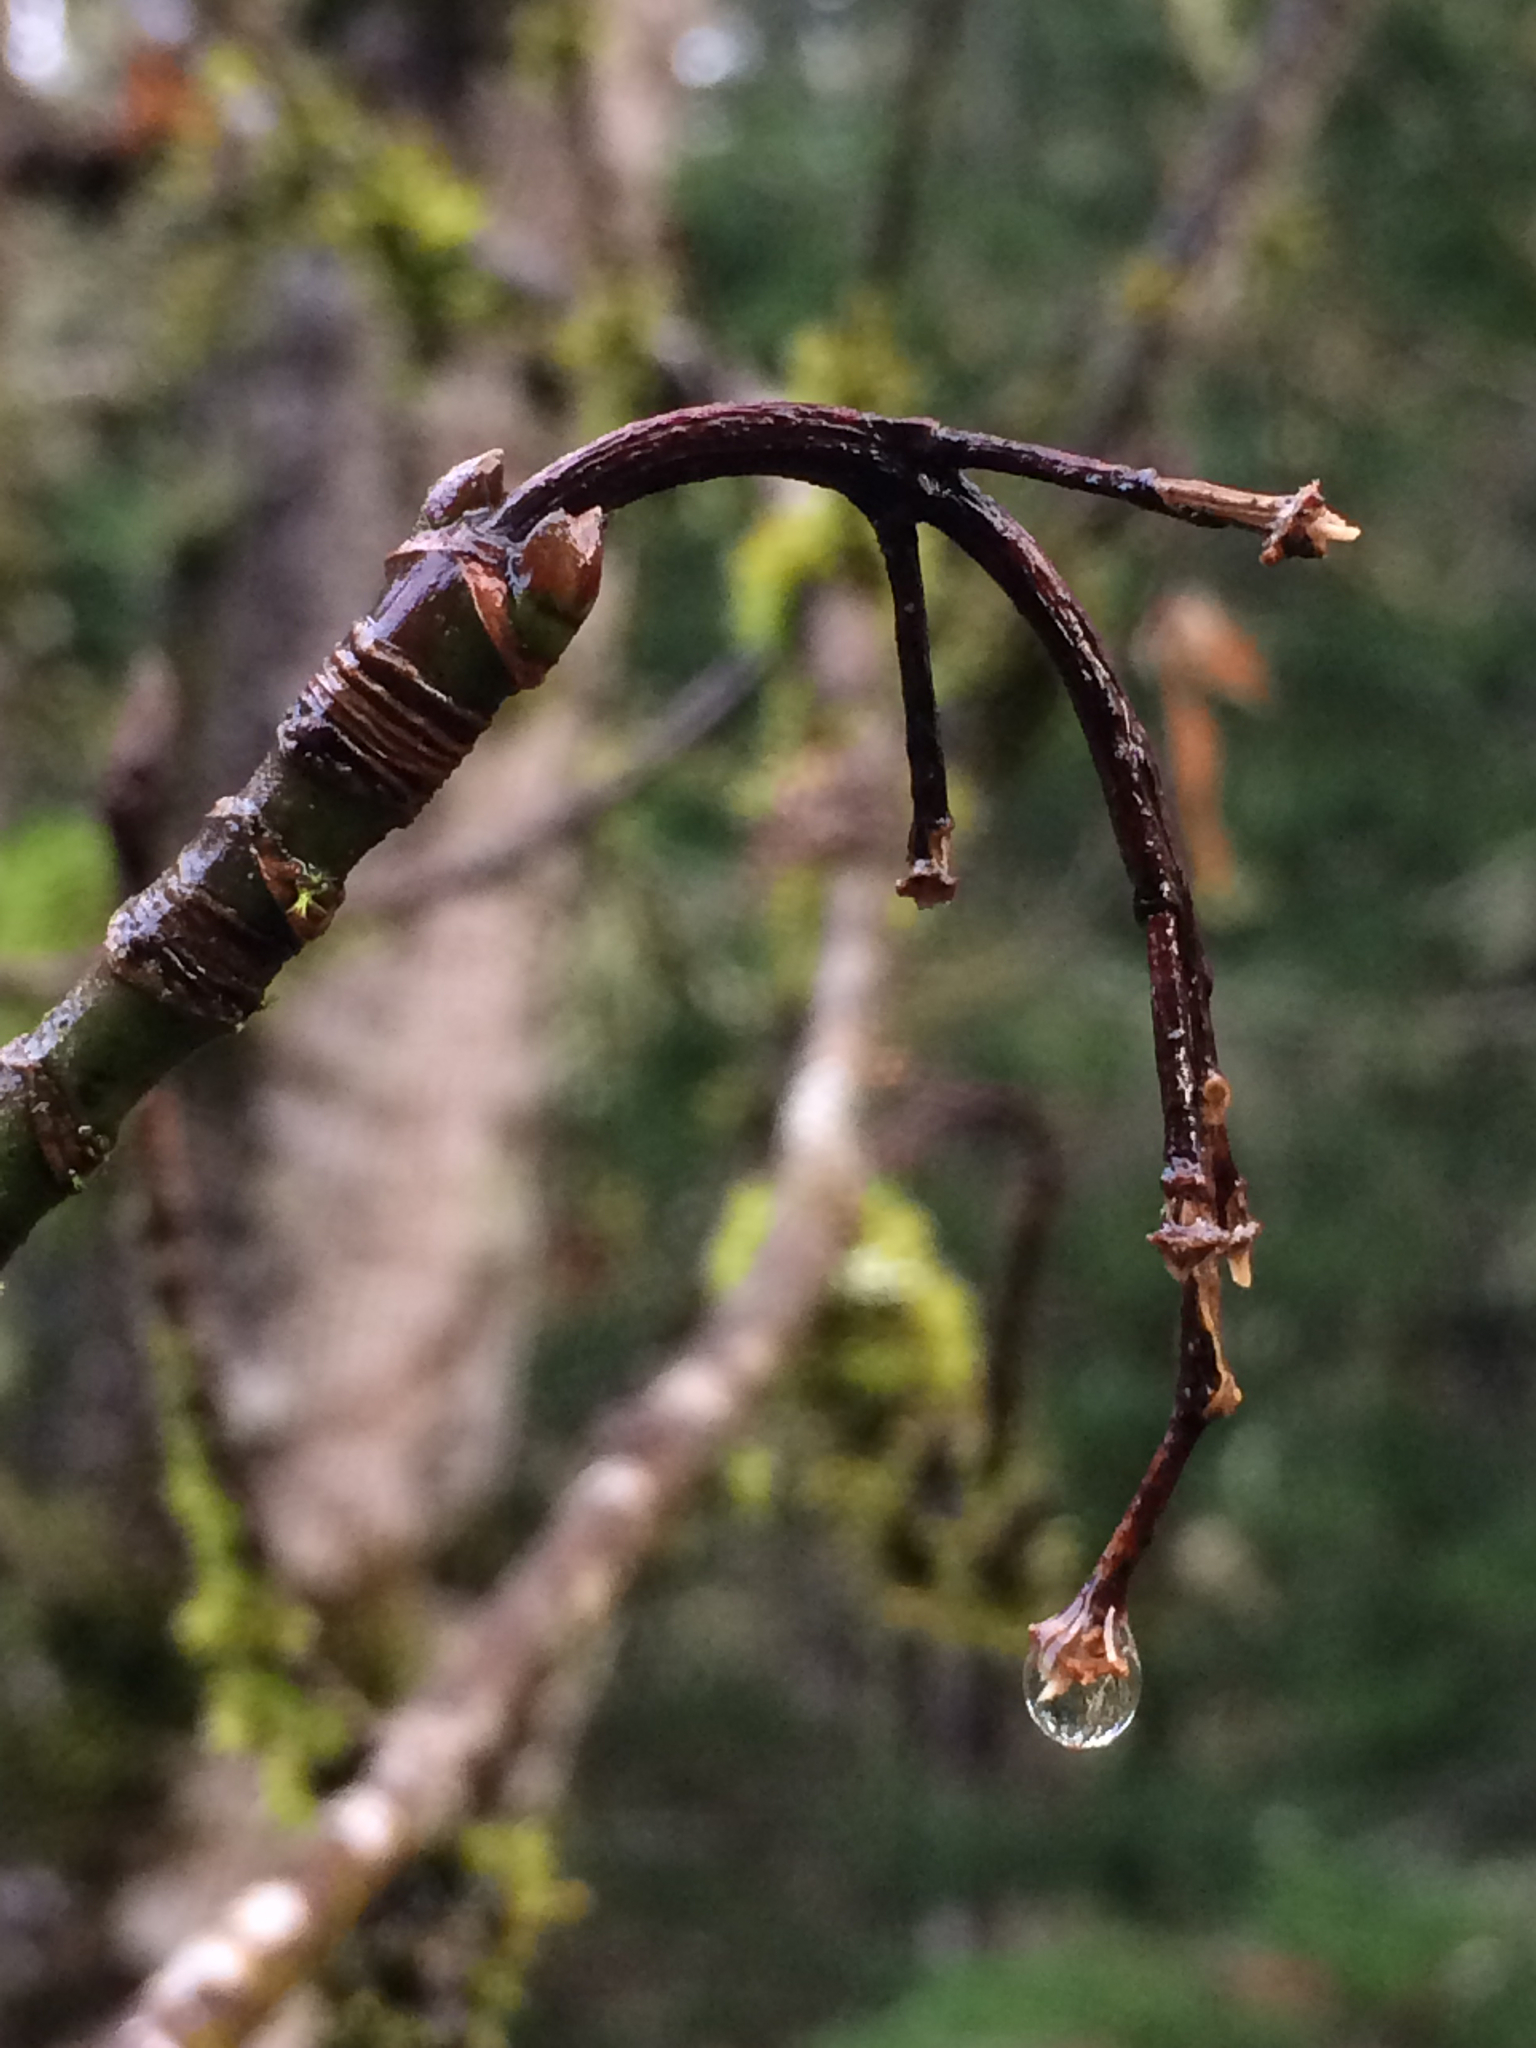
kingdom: Plantae
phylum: Tracheophyta
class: Magnoliopsida
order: Sapindales
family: Sapindaceae
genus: Acer
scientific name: Acer macrophyllum
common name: Oregon maple
